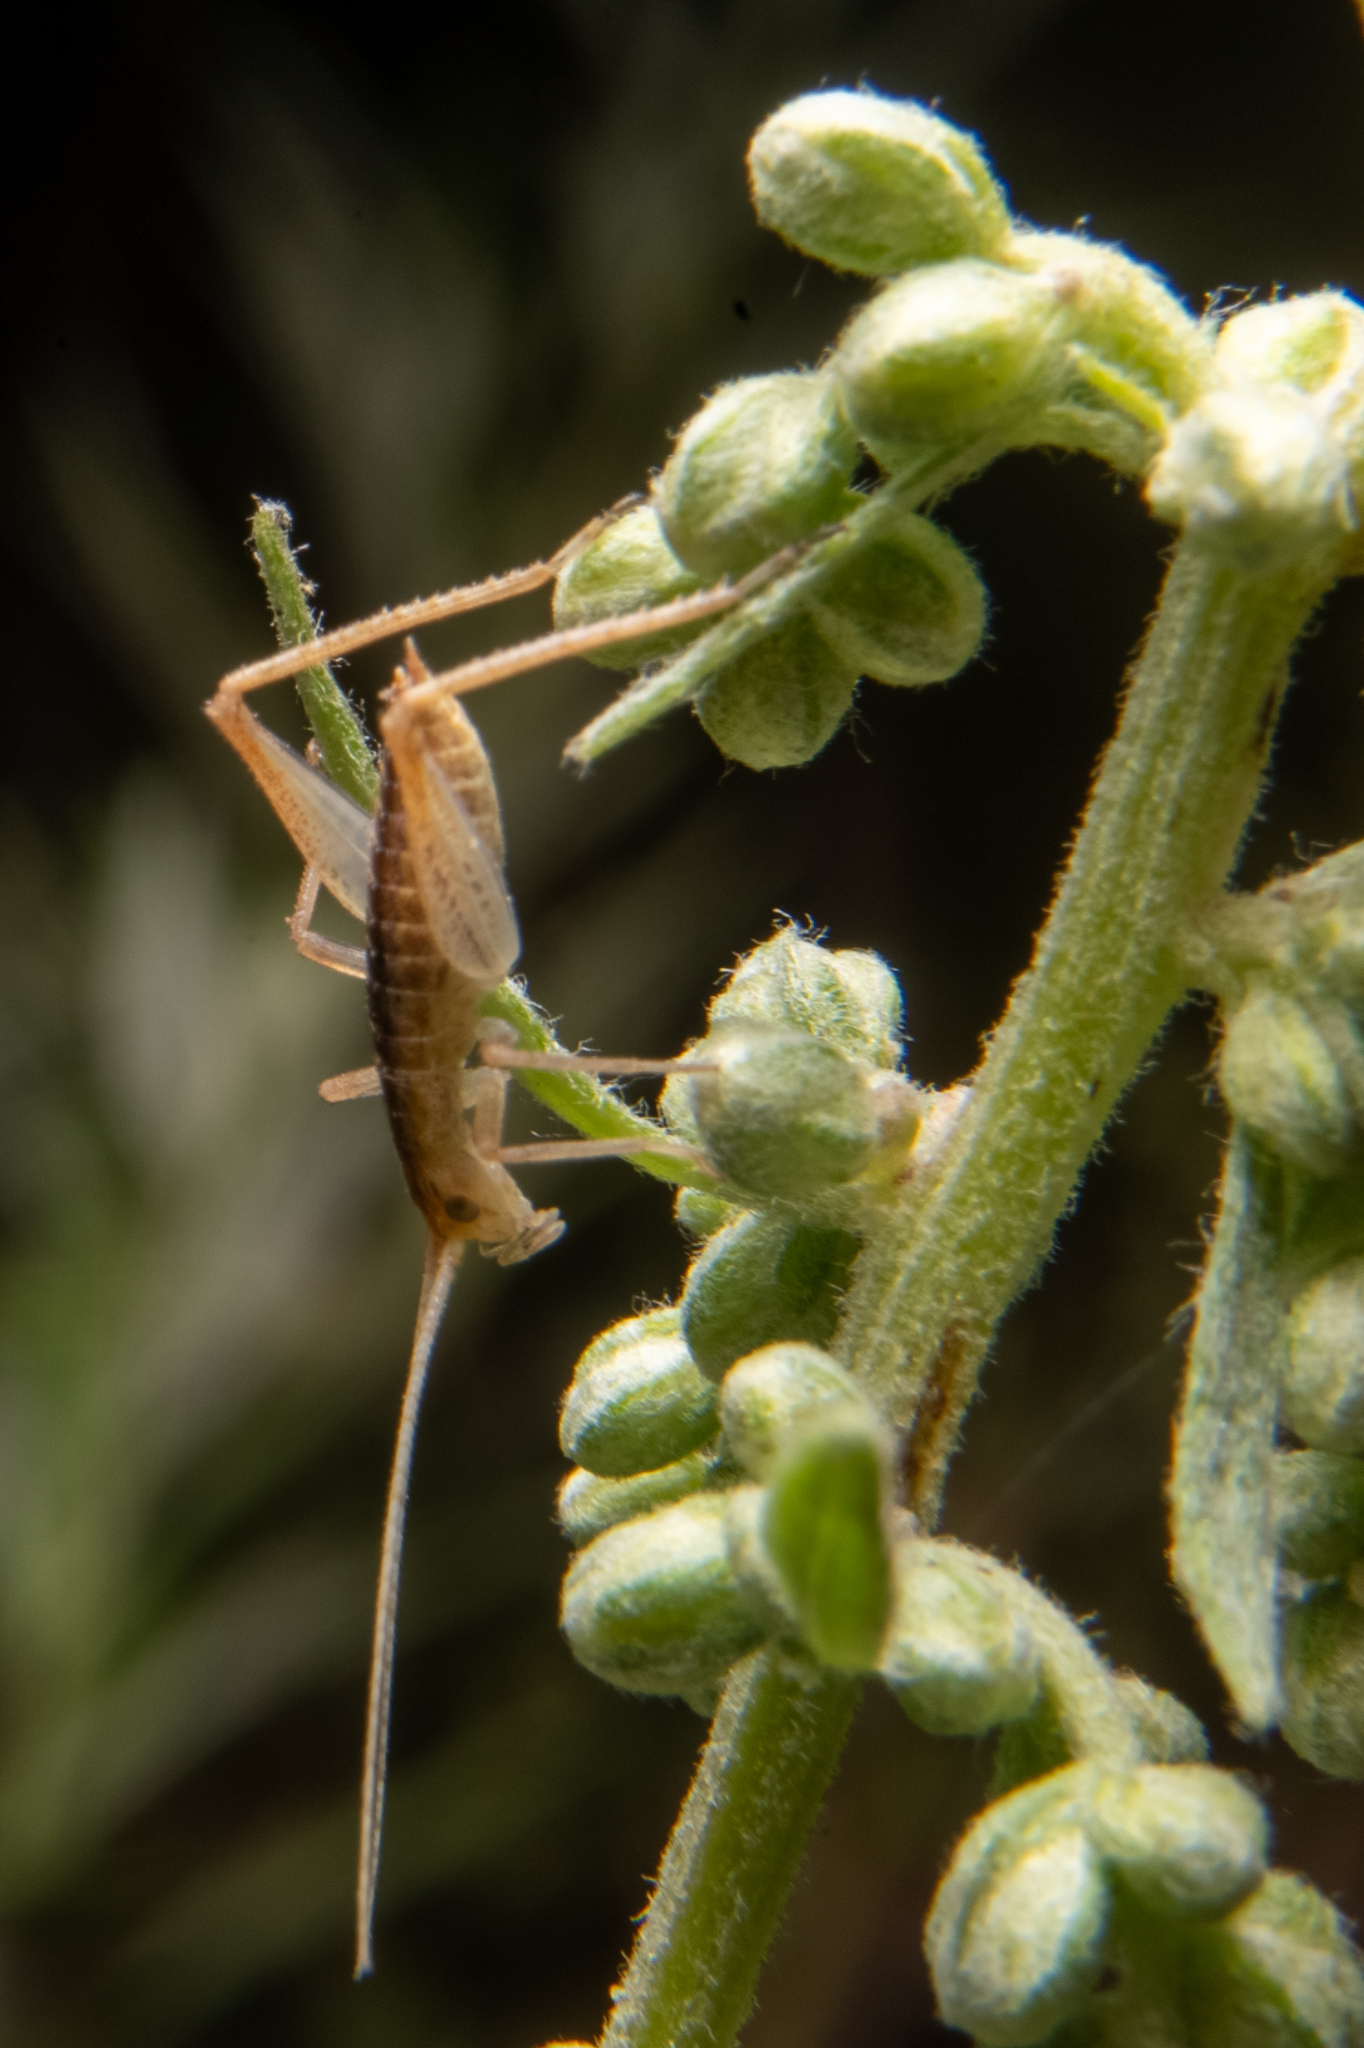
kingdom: Animalia
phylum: Arthropoda
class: Insecta
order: Orthoptera
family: Gryllidae
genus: Oecanthus
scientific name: Oecanthus californicus
